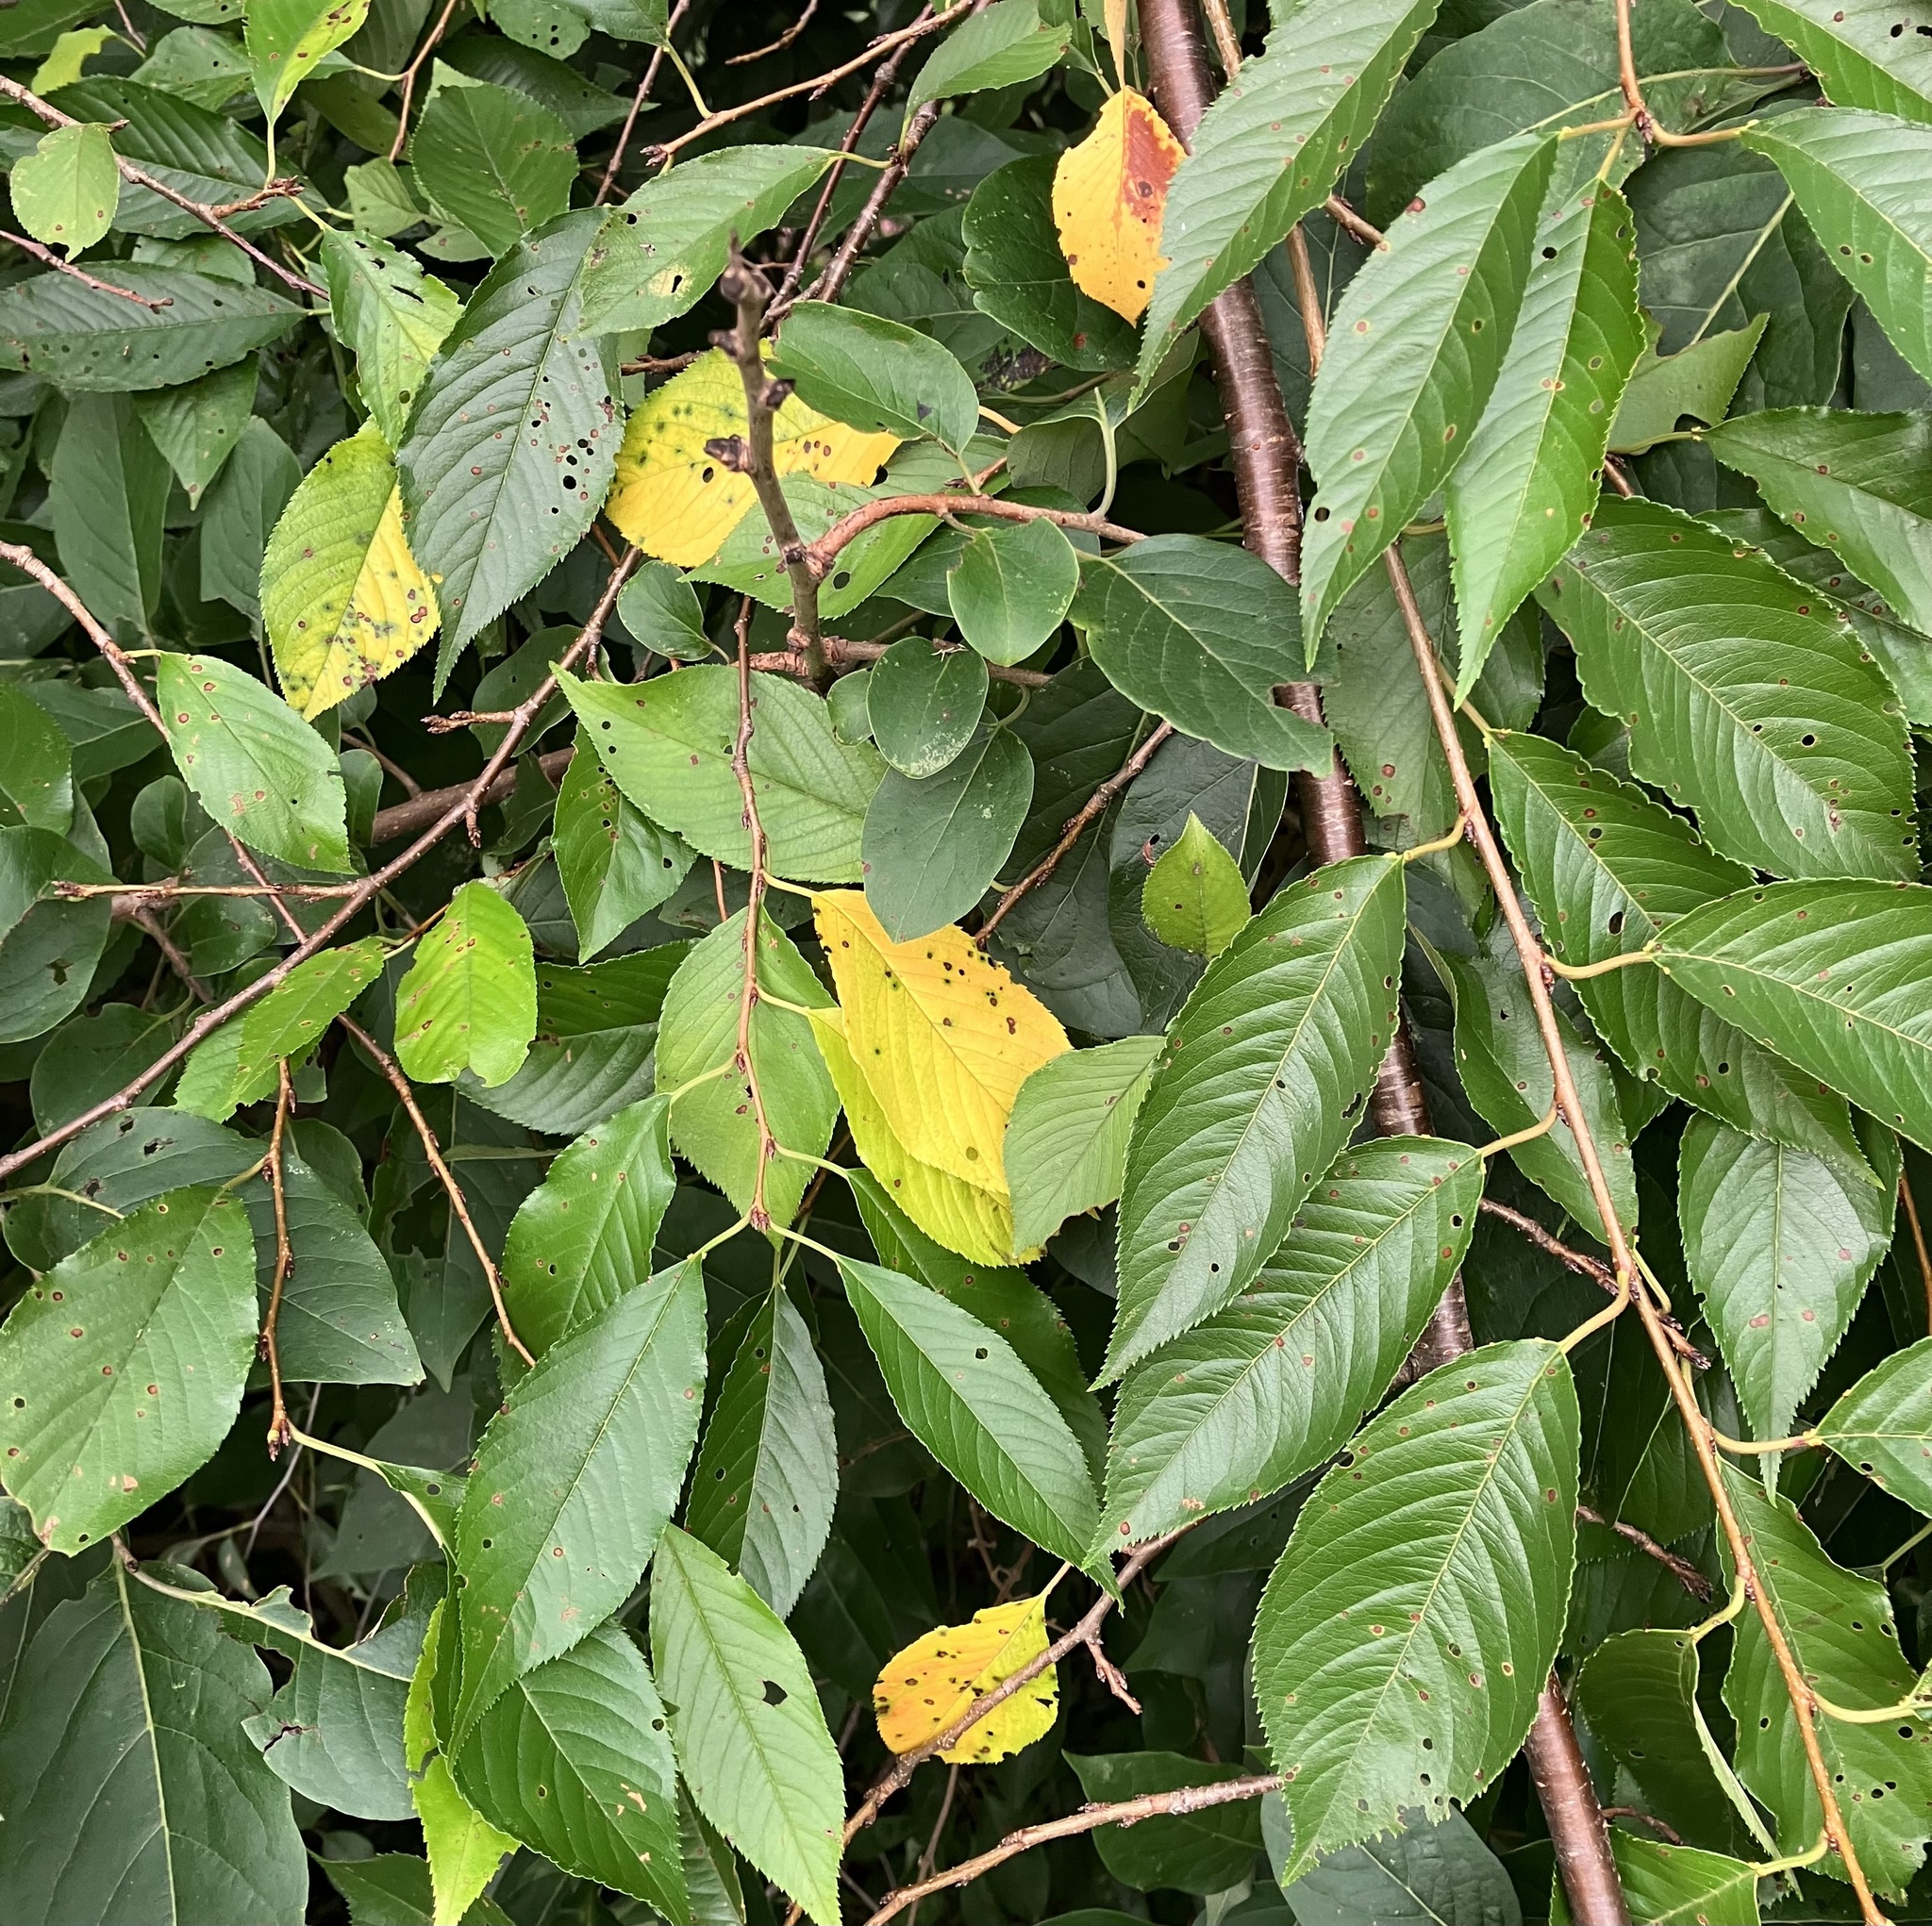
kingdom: Fungi
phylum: Ascomycota
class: Leotiomycetes
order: Helotiales
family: Drepanopezizaceae
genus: Blumeriella
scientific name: Blumeriella jaapii
